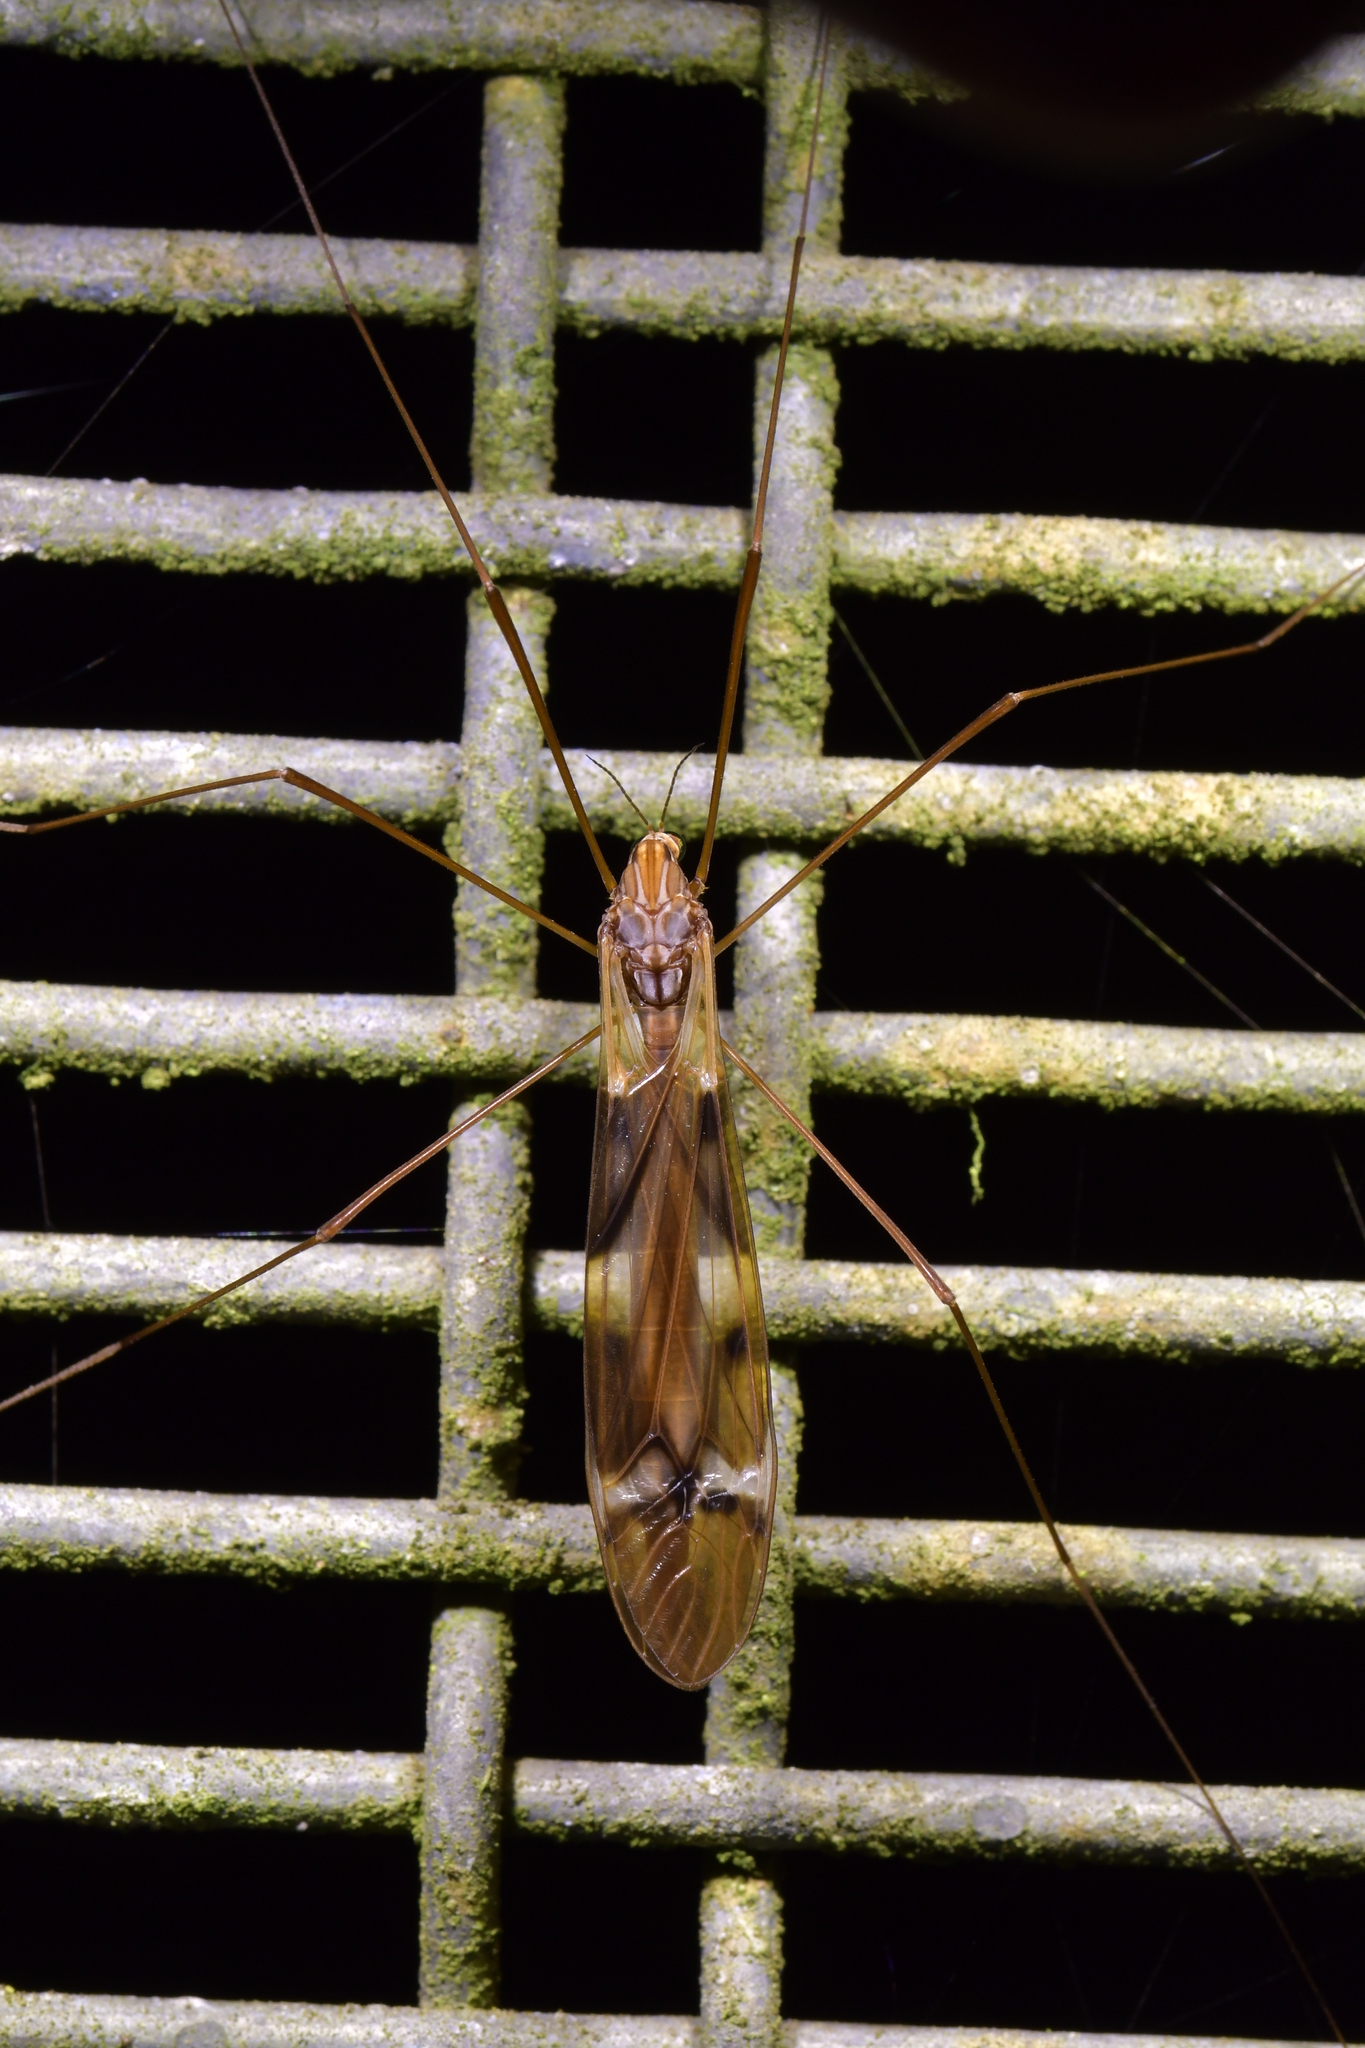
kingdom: Animalia
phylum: Arthropoda
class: Insecta
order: Diptera
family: Tipulidae
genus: Zelandotipula
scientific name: Zelandotipula fulva
